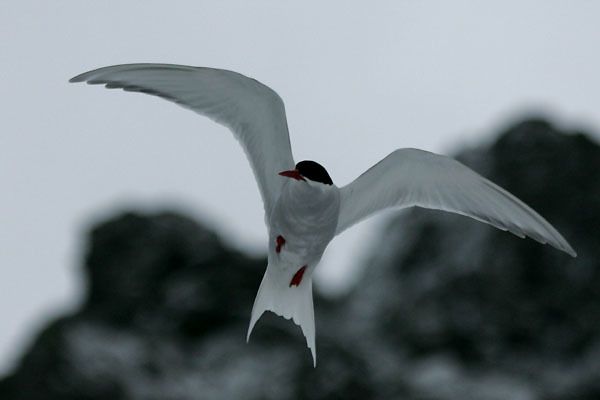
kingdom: Animalia
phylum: Chordata
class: Aves
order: Charadriiformes
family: Laridae
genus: Sterna
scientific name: Sterna vittata
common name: Antarctic tern
